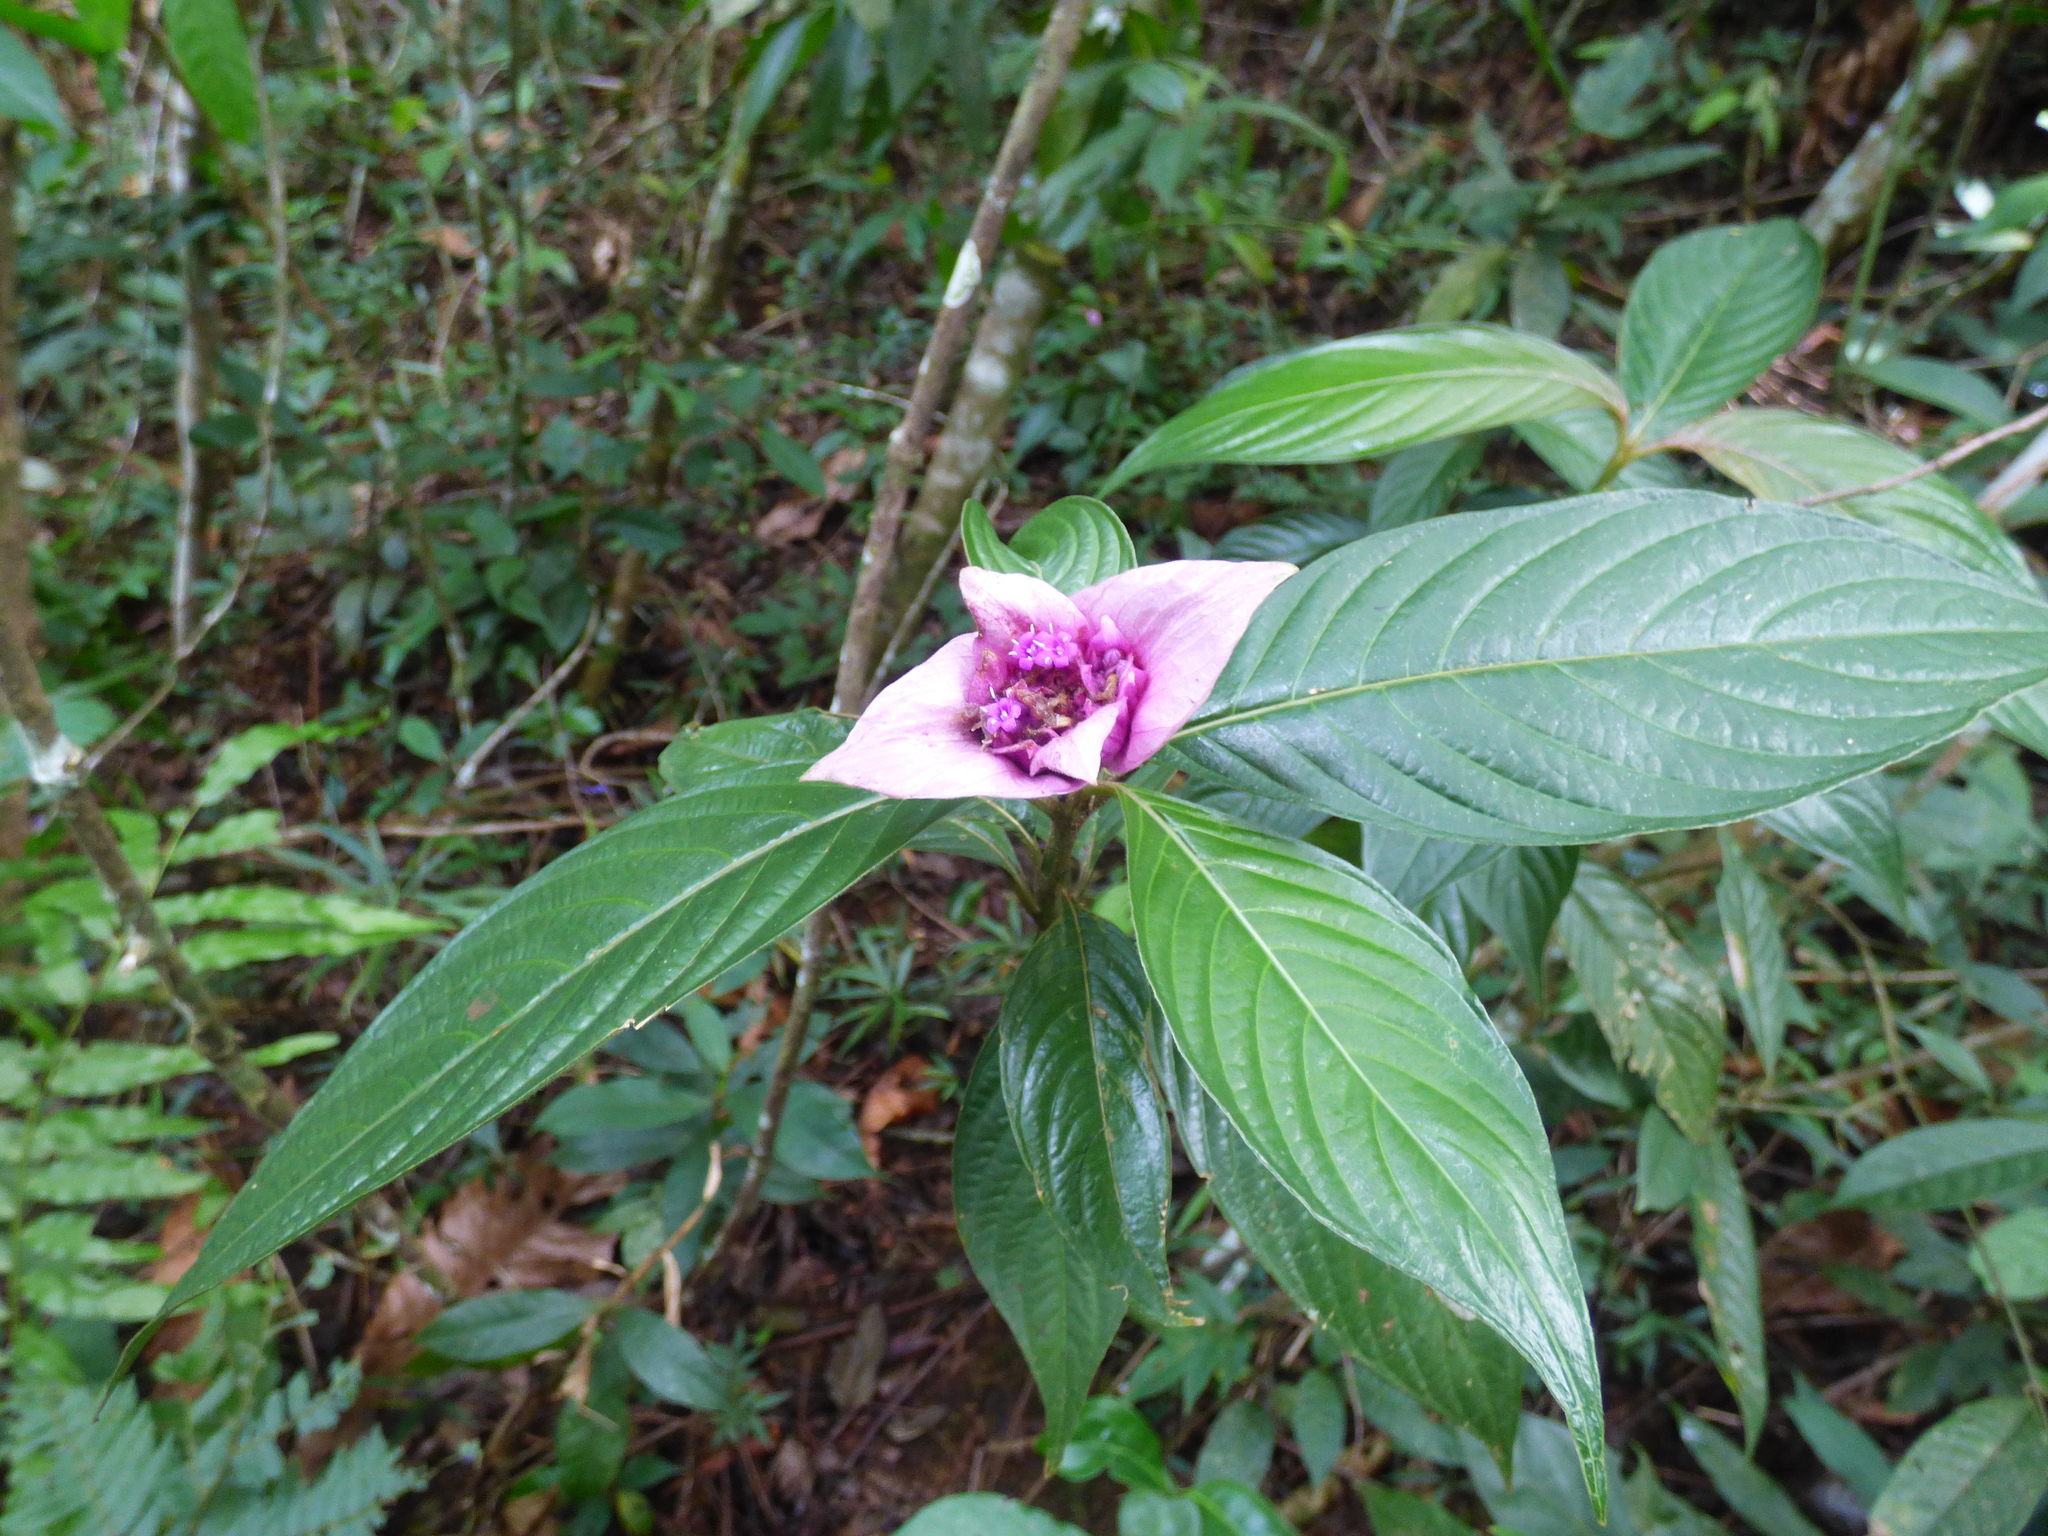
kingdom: Plantae
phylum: Tracheophyta
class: Magnoliopsida
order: Gentianales
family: Rubiaceae
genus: Palicourea
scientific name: Palicourea colorata
